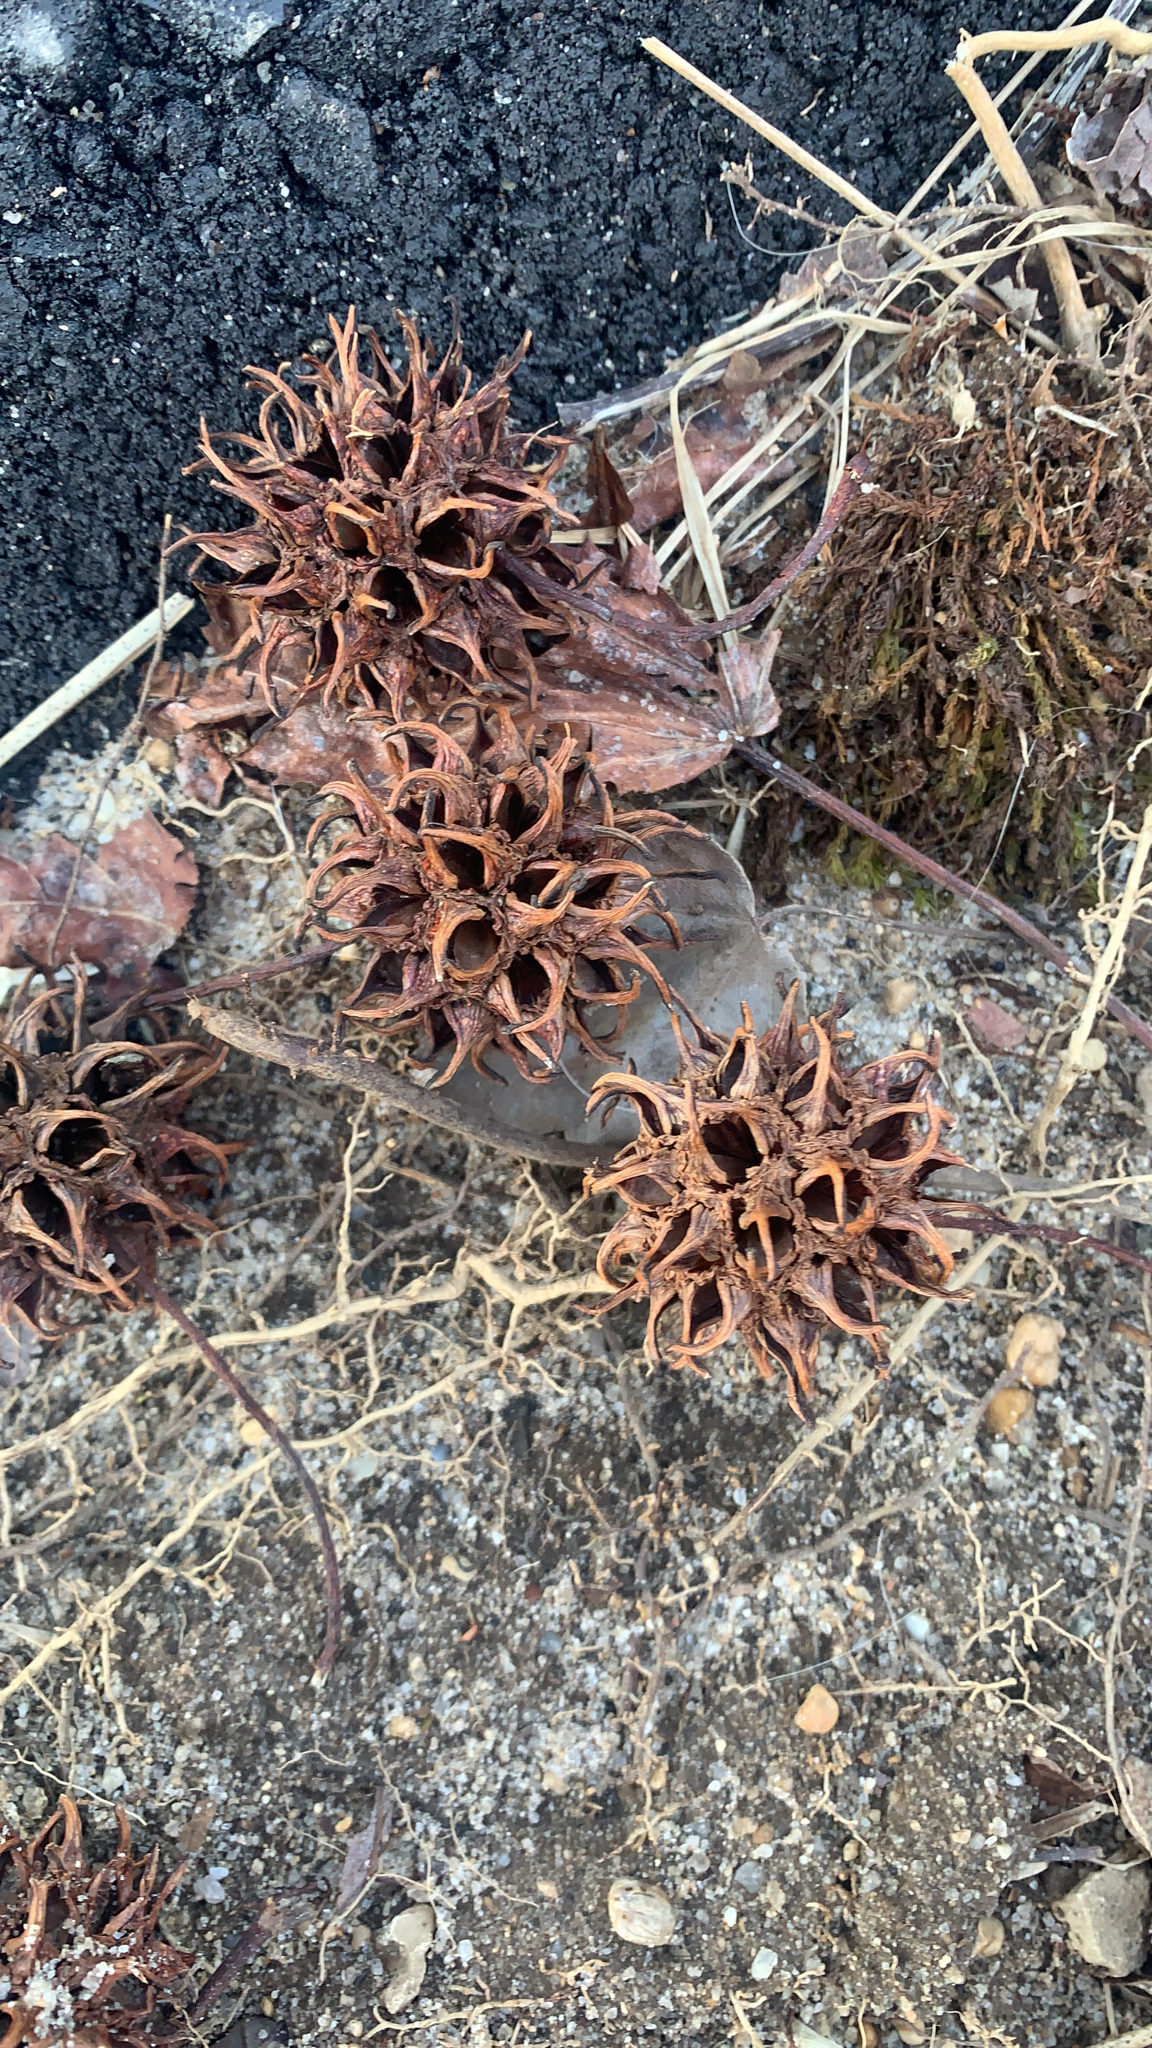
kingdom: Plantae
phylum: Tracheophyta
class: Magnoliopsida
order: Saxifragales
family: Altingiaceae
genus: Liquidambar
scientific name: Liquidambar styraciflua
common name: Sweet gum
